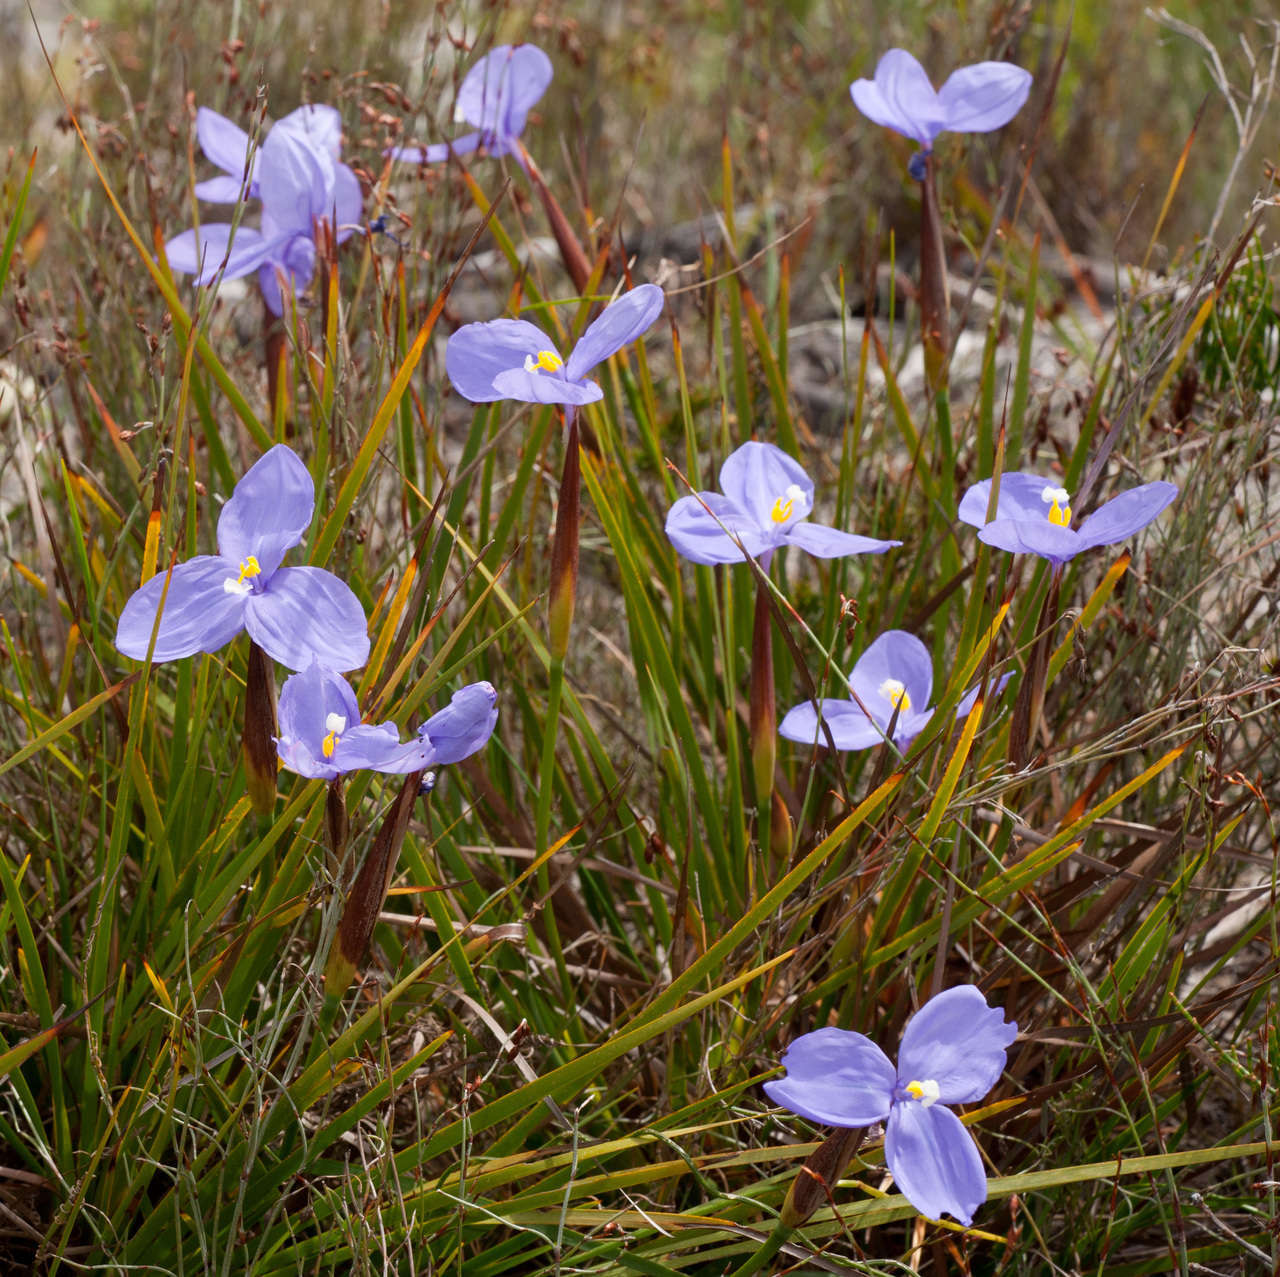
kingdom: Plantae
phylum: Tracheophyta
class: Liliopsida
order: Asparagales
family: Iridaceae
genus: Patersonia
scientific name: Patersonia occidentalis
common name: Long purple-flag
